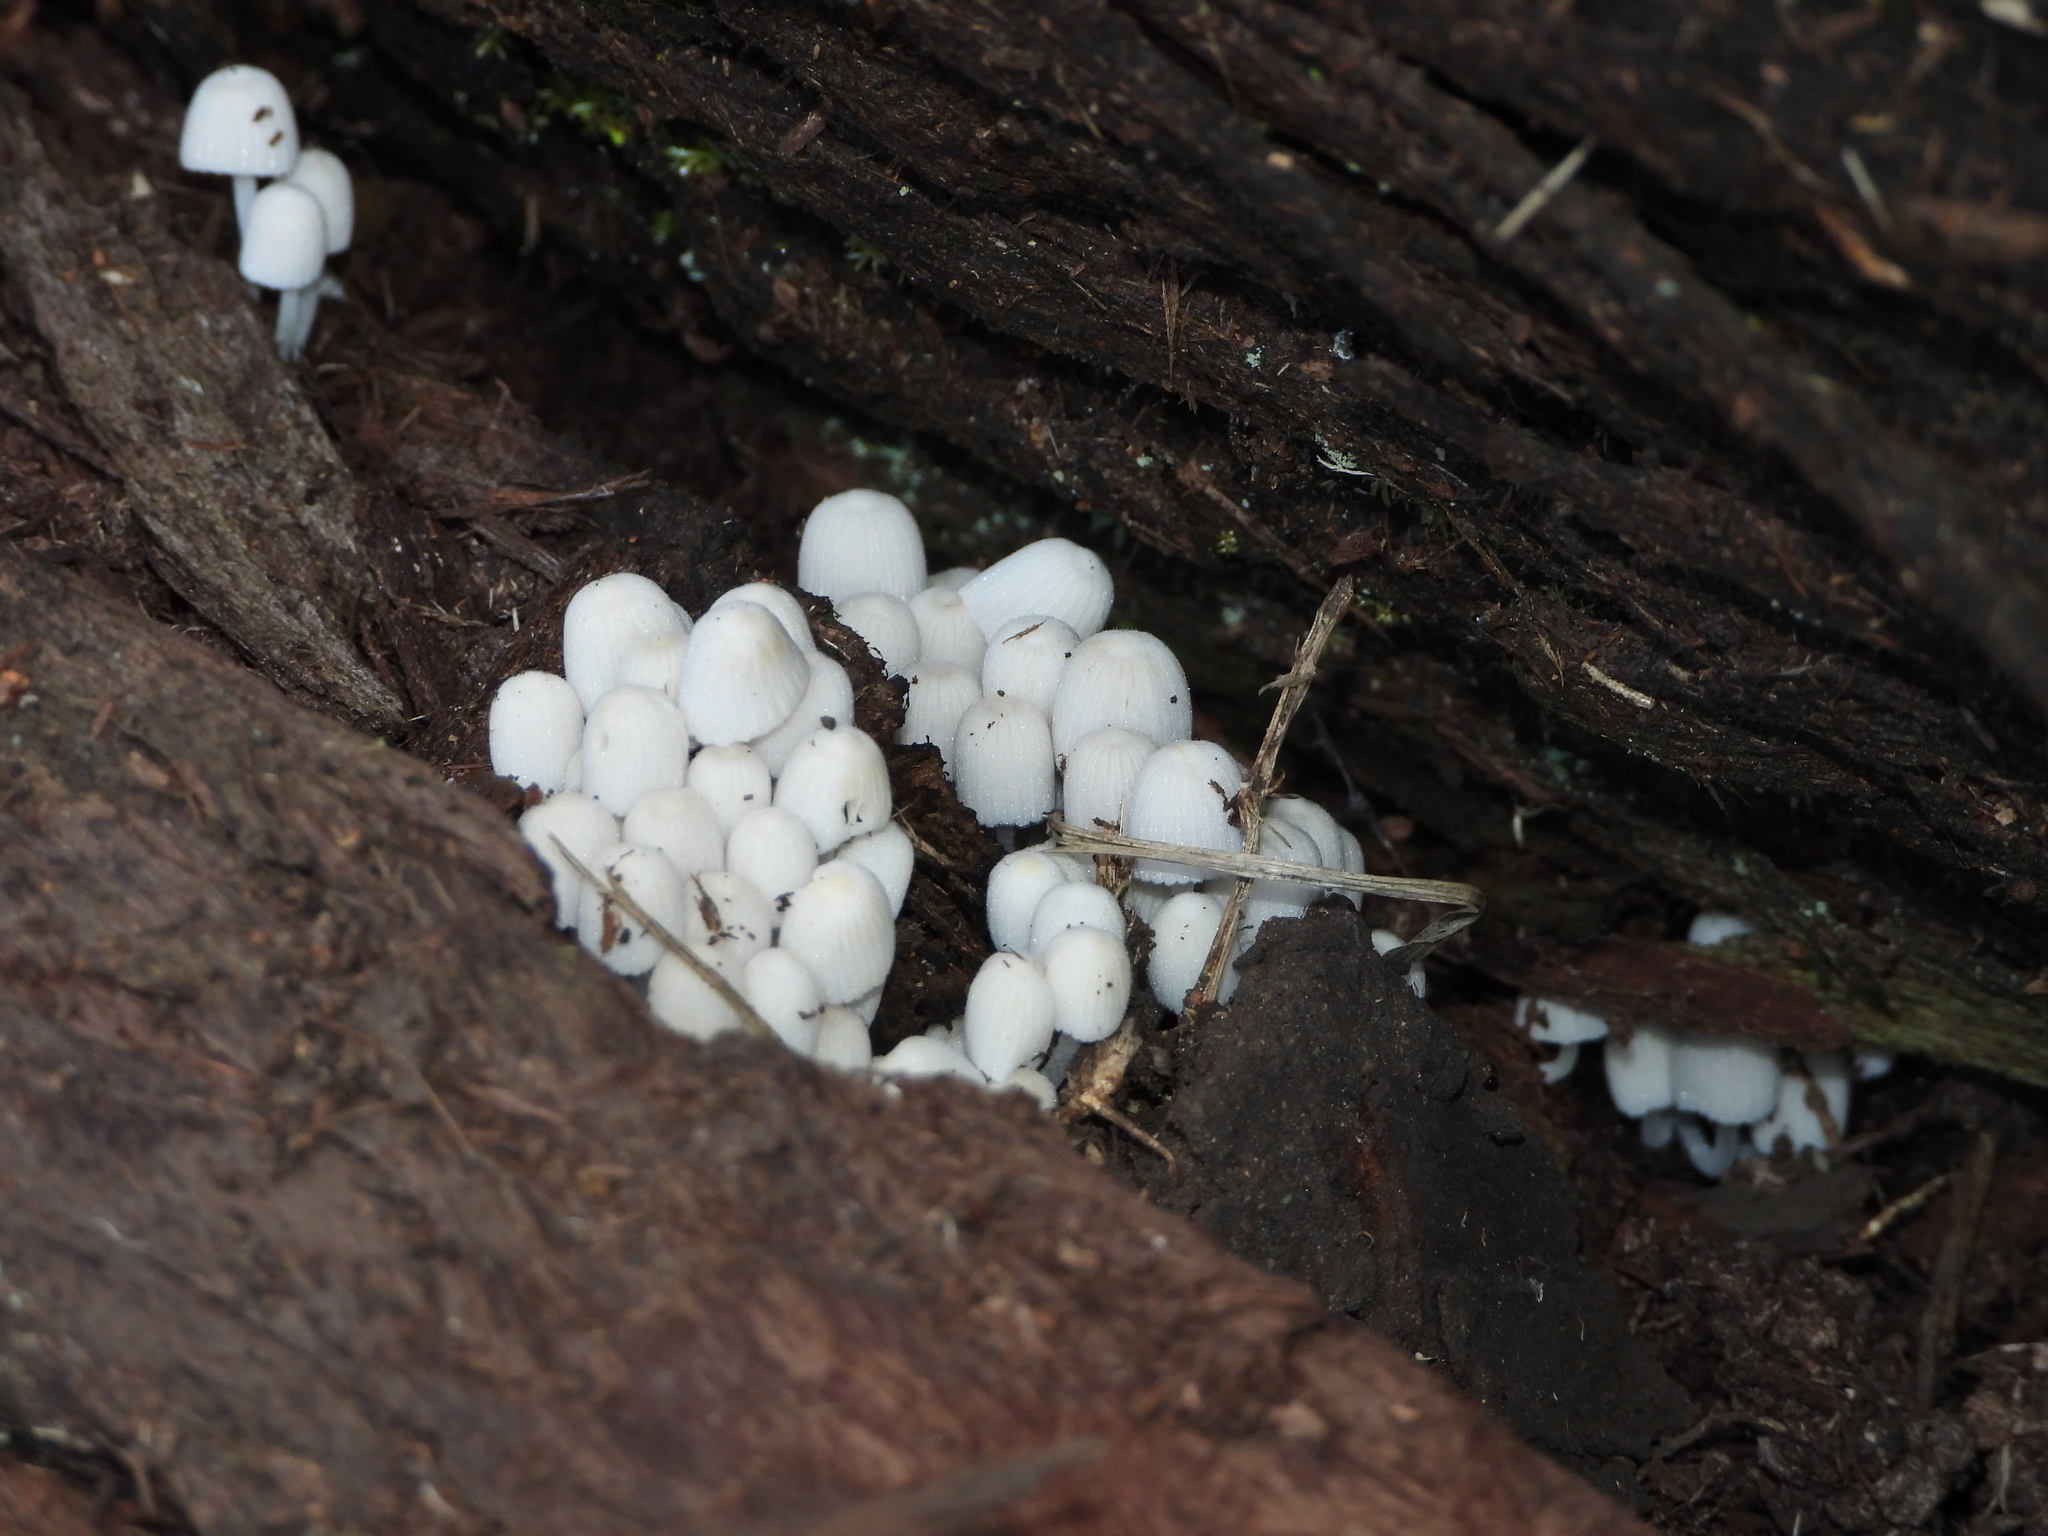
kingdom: Fungi
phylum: Basidiomycota
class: Agaricomycetes
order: Agaricales
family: Psathyrellaceae
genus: Coprinellus
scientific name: Coprinellus disseminatus
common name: Fairies' bonnets
